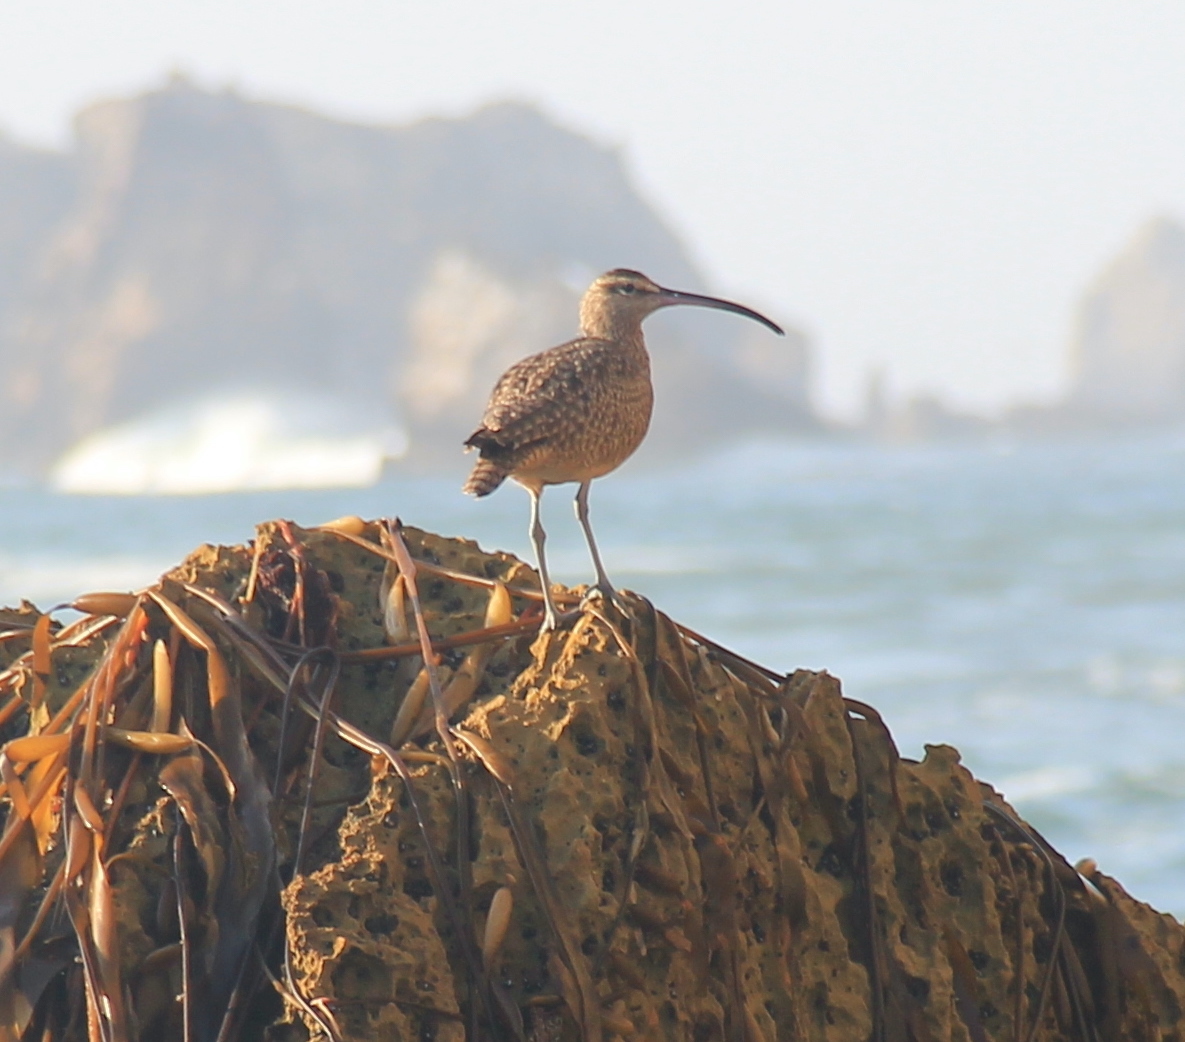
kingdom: Animalia
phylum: Chordata
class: Aves
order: Charadriiformes
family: Scolopacidae
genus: Numenius
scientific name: Numenius phaeopus
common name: Whimbrel
